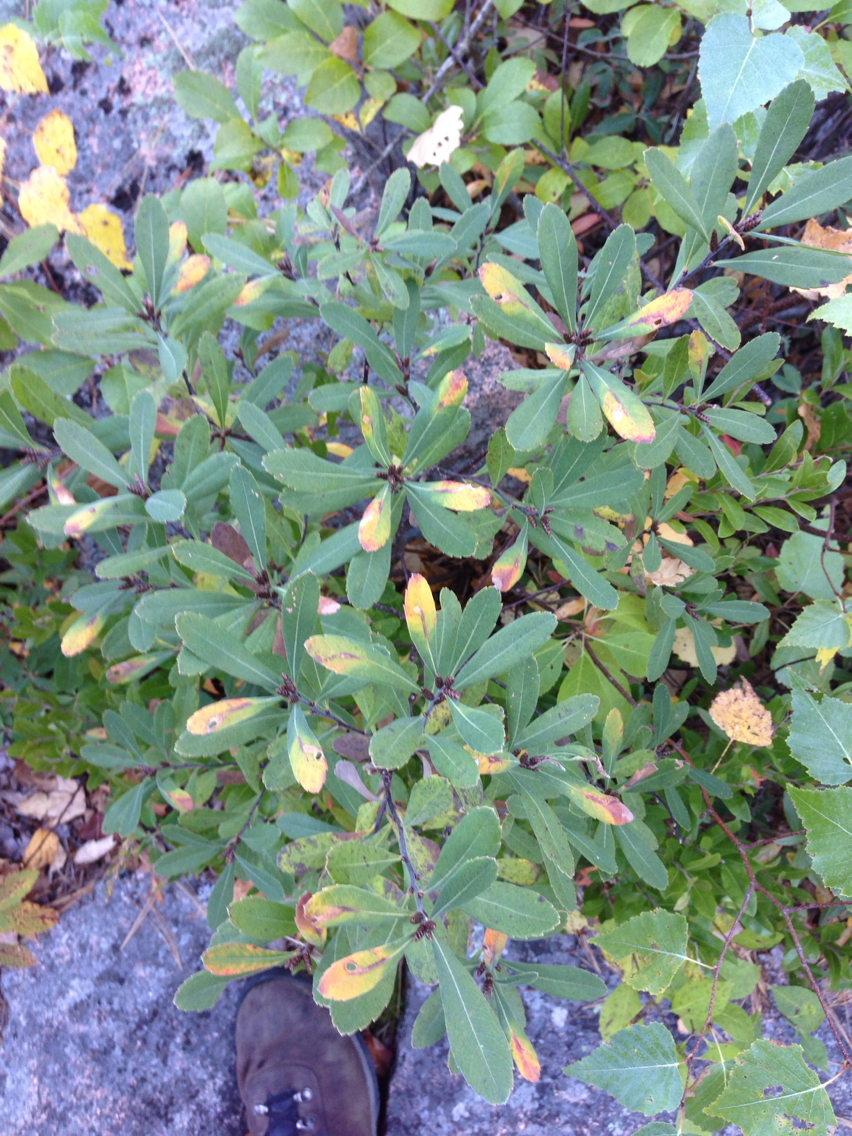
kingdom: Plantae
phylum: Tracheophyta
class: Magnoliopsida
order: Fagales
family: Myricaceae
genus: Myrica
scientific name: Myrica gale
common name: Sweet gale
